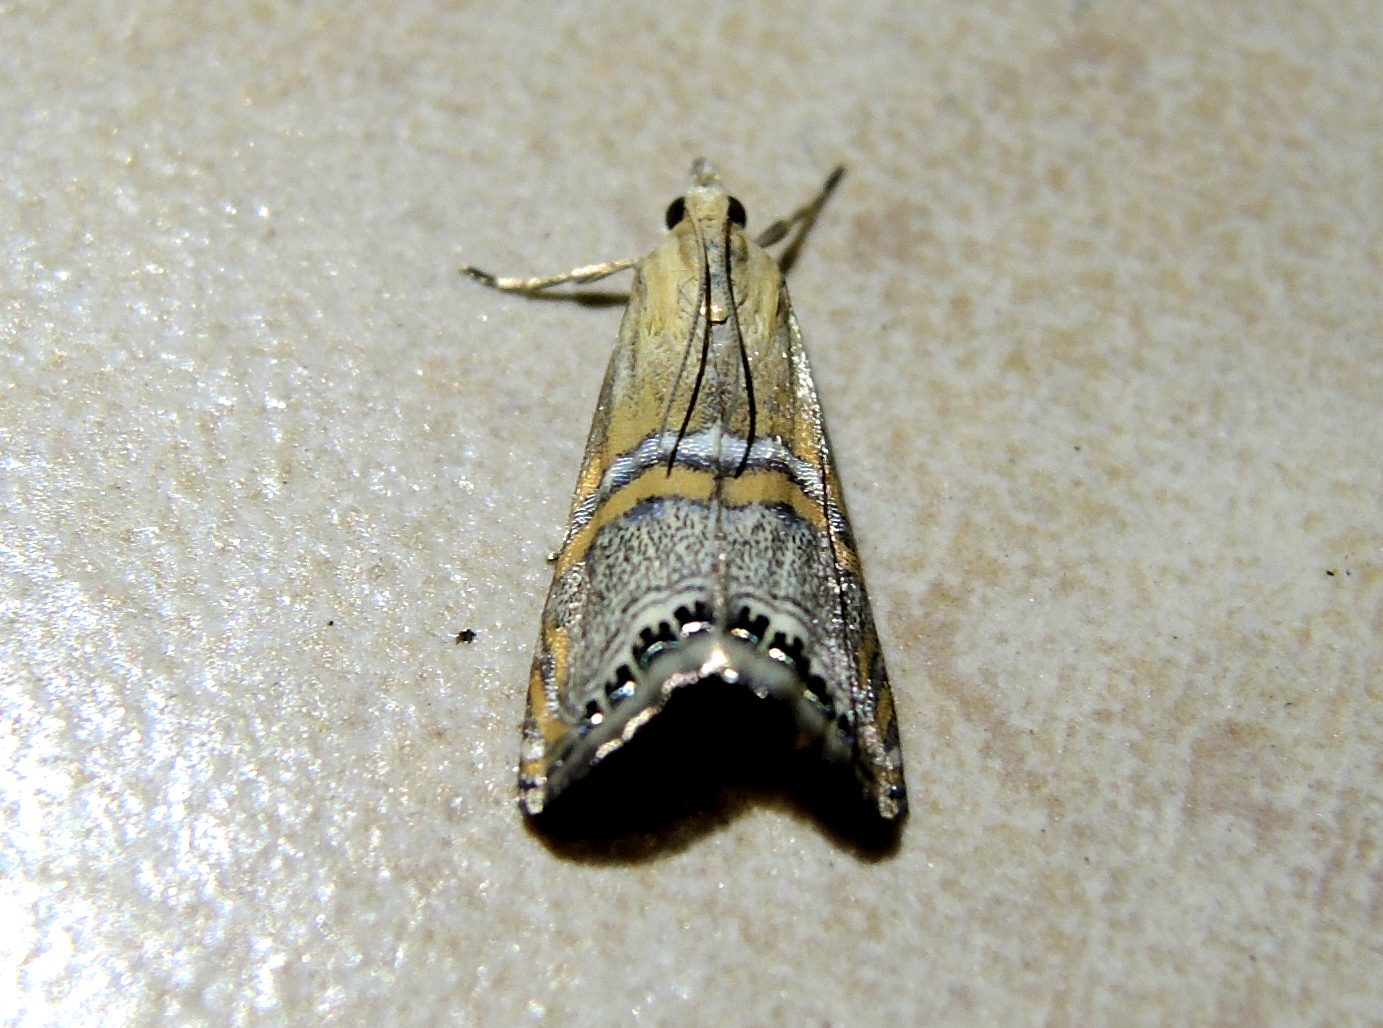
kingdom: Animalia
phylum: Arthropoda
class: Insecta
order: Lepidoptera
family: Crambidae
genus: Euchromius
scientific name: Euchromius bella
